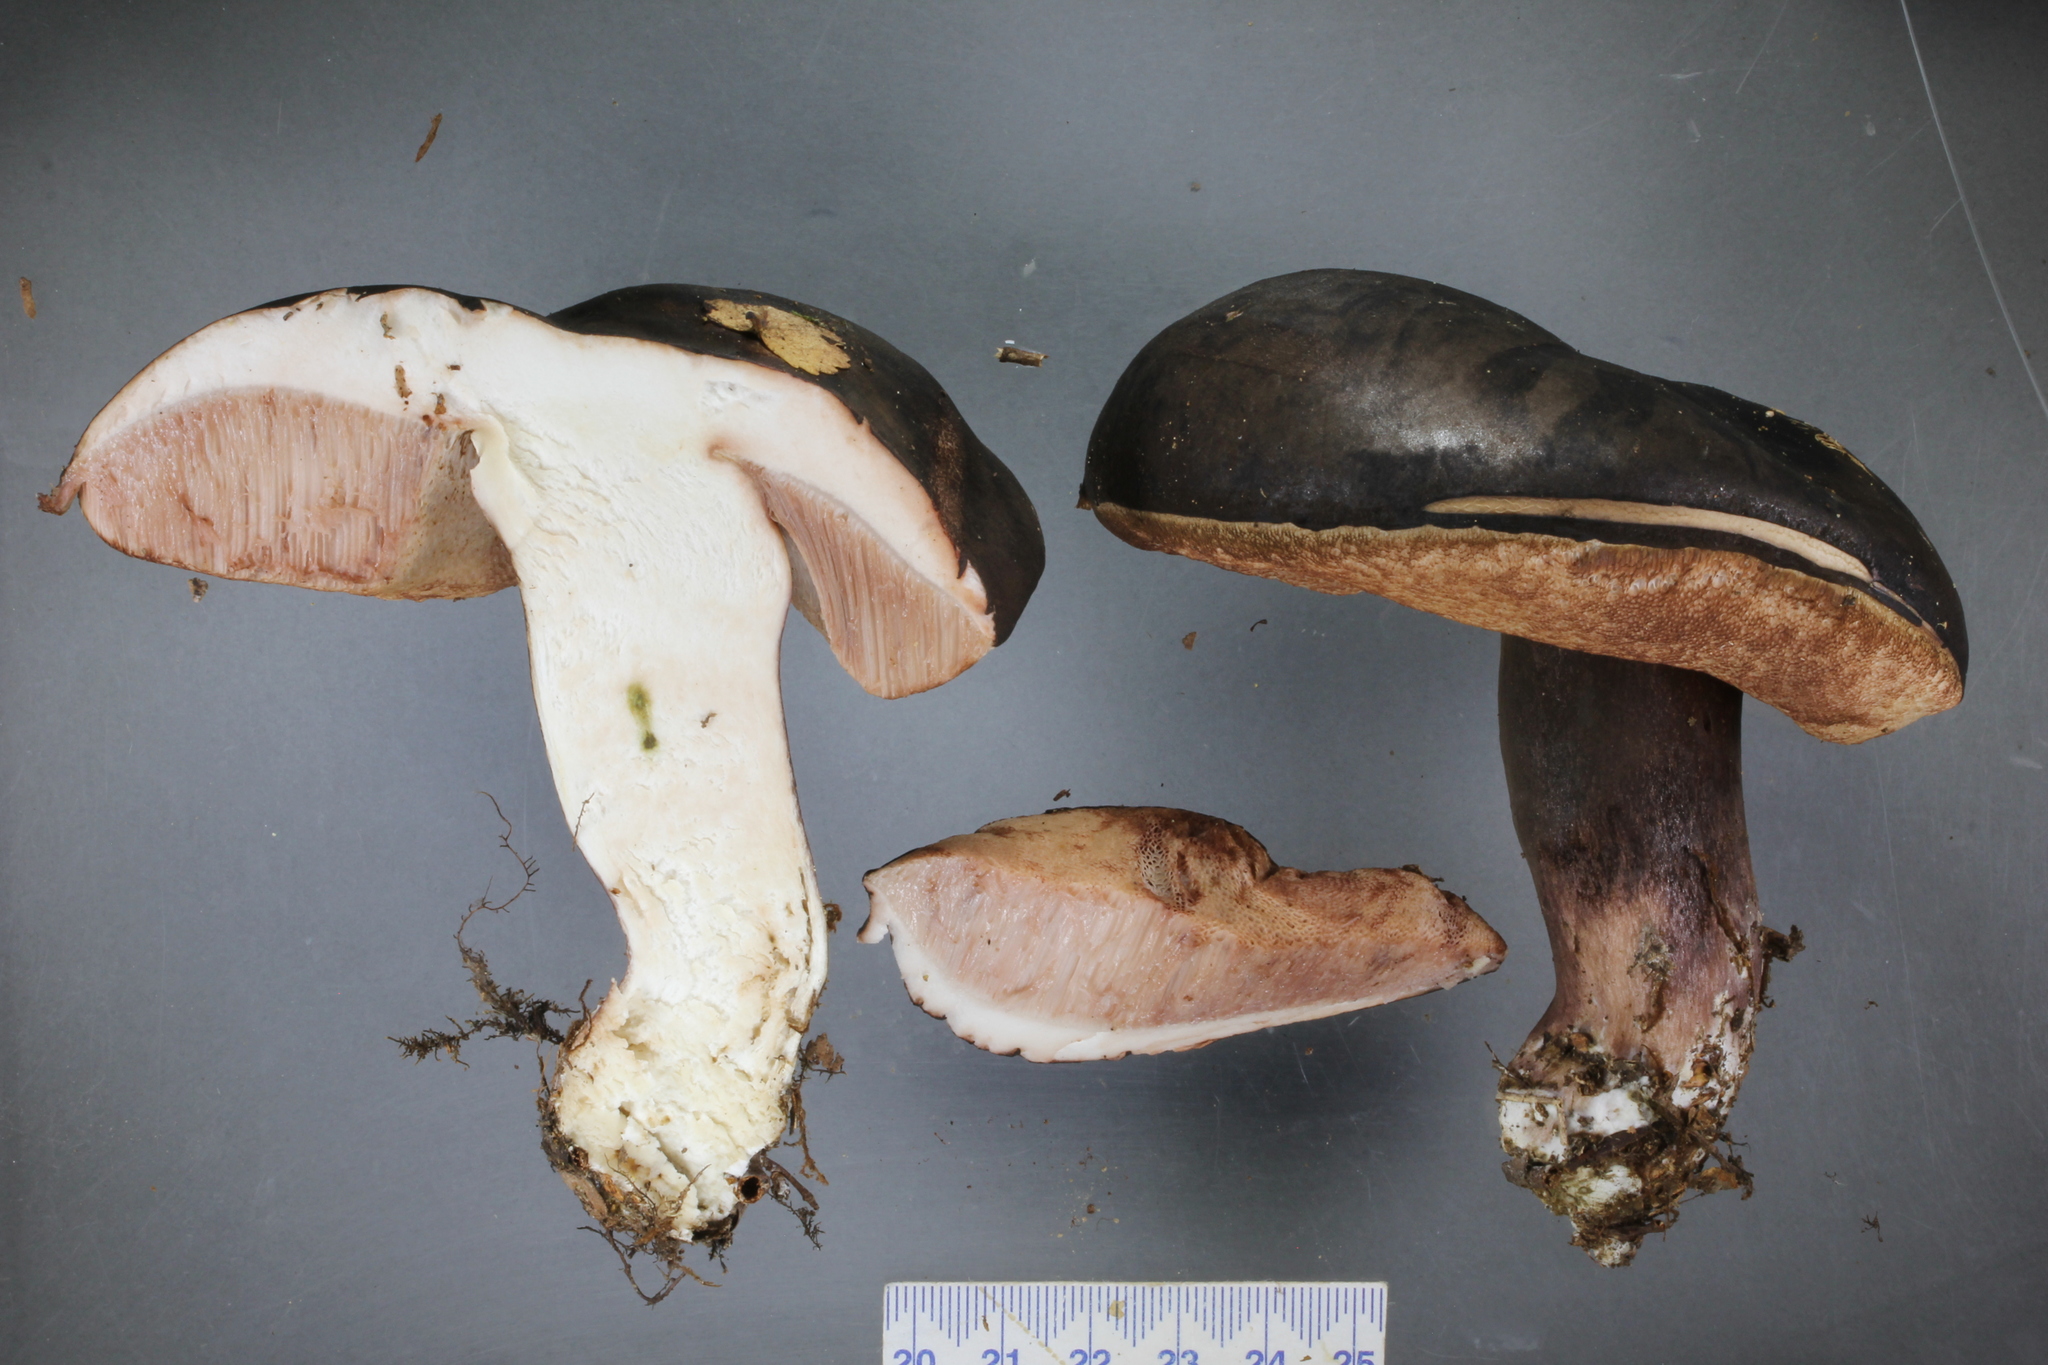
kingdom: Fungi
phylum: Basidiomycota
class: Agaricomycetes
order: Boletales
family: Boletaceae
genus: Porphyrellus
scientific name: Porphyrellus formosus
